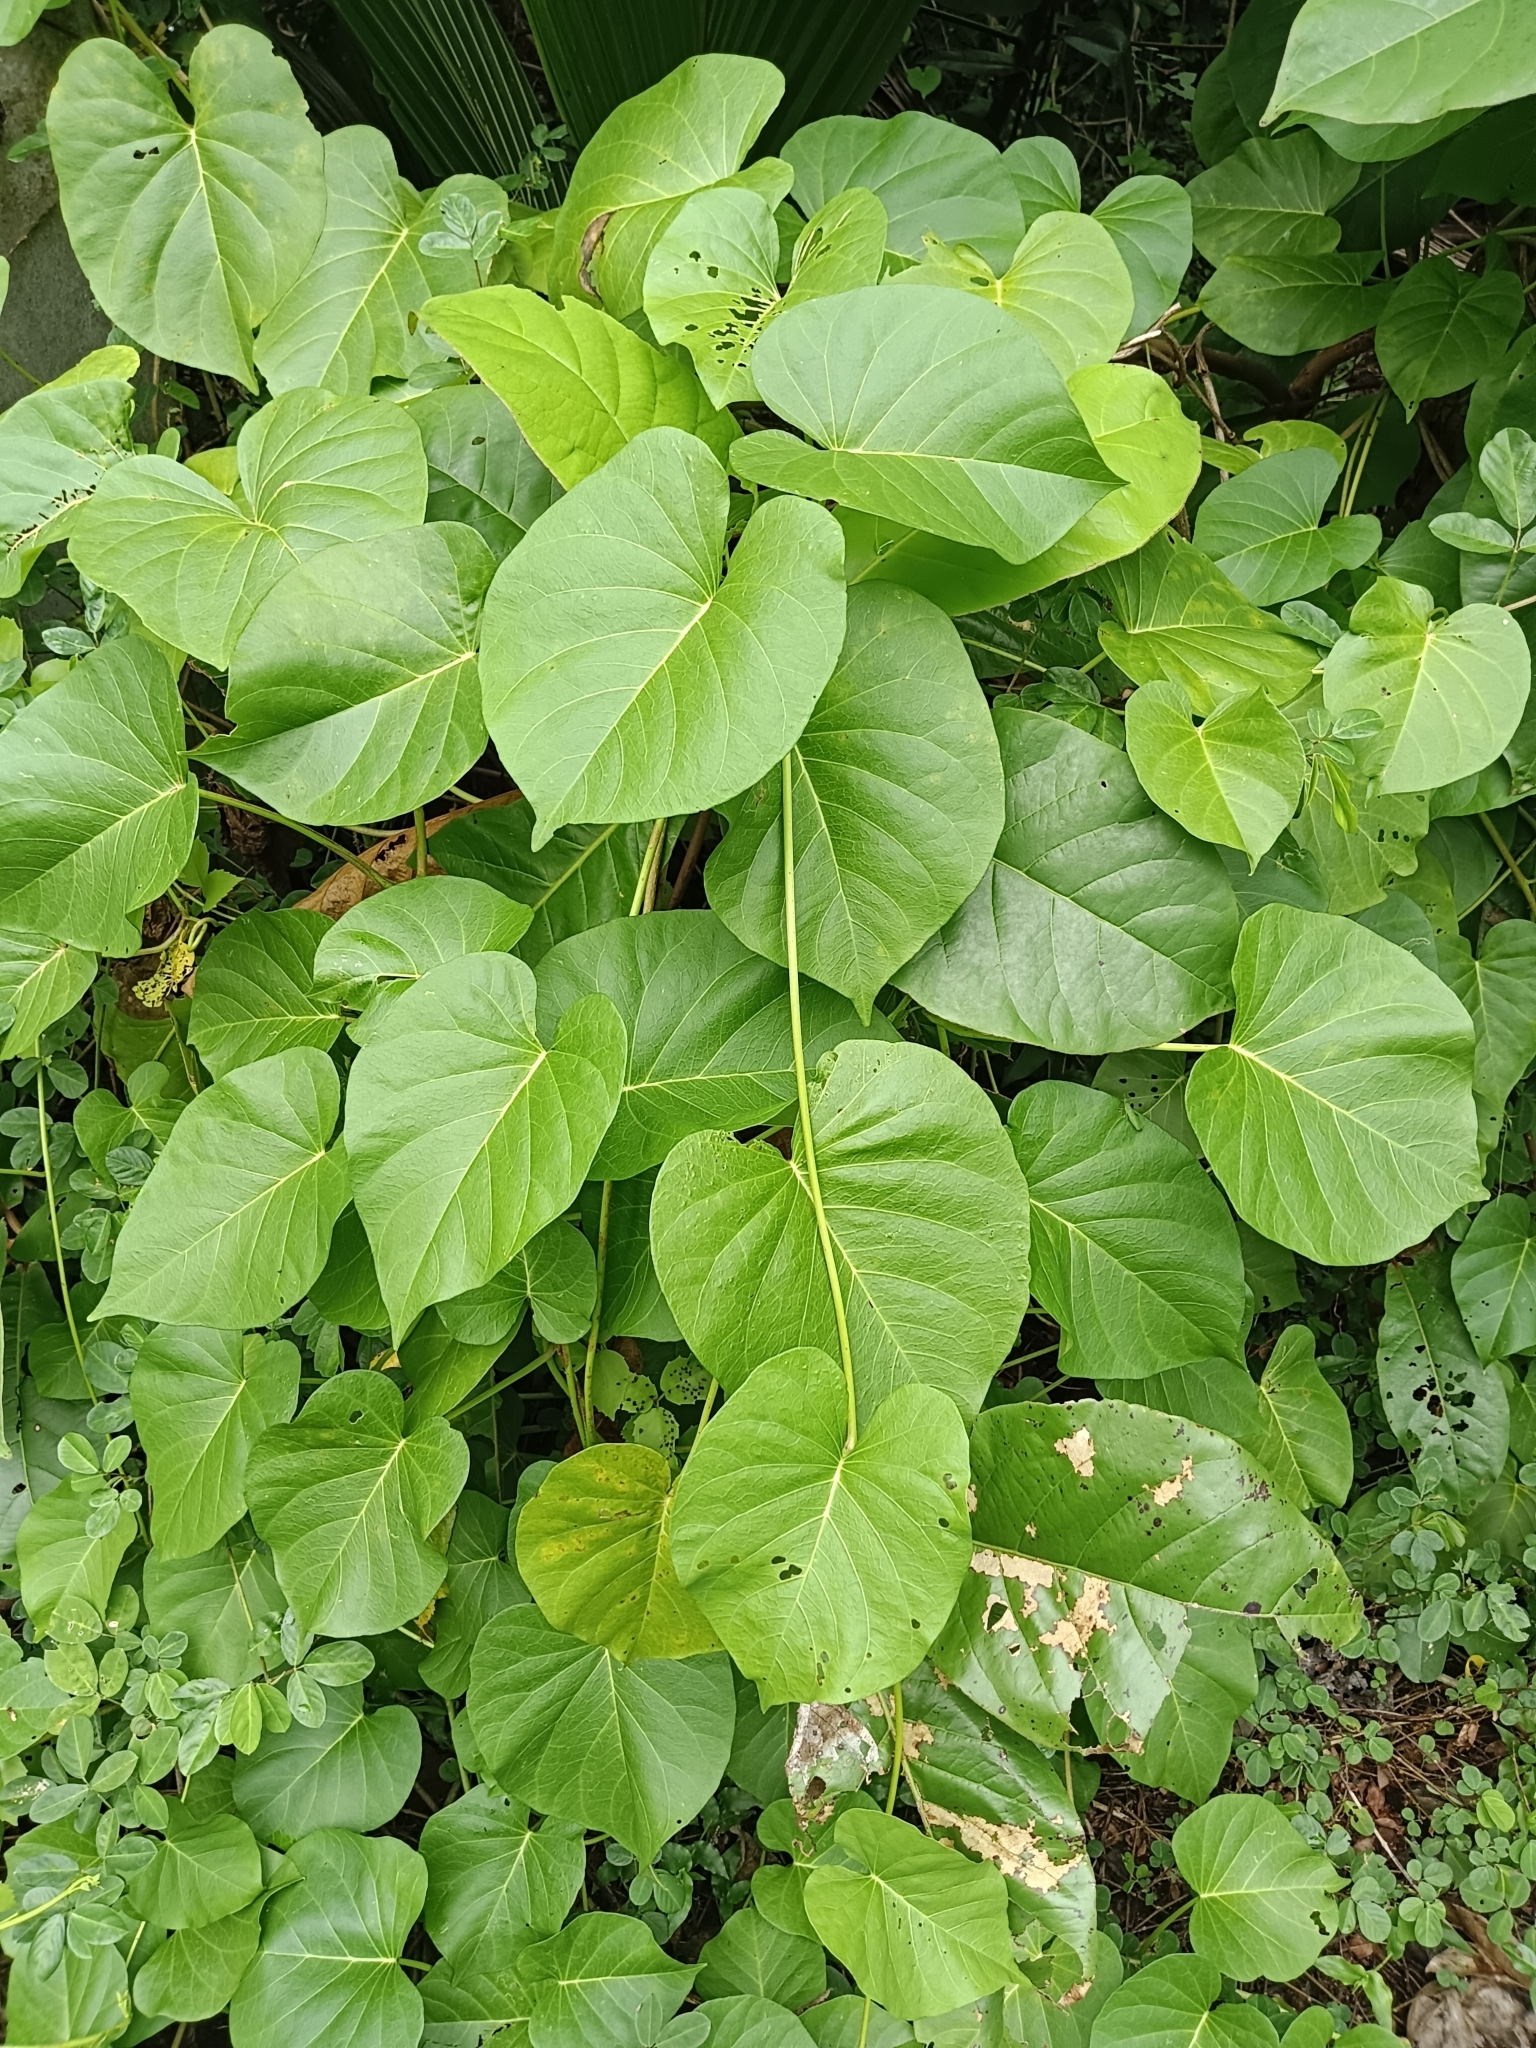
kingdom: Plantae
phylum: Tracheophyta
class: Magnoliopsida
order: Solanales
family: Convolvulaceae
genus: Ipomoea
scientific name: Ipomoea violacea
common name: Beach moonflower
